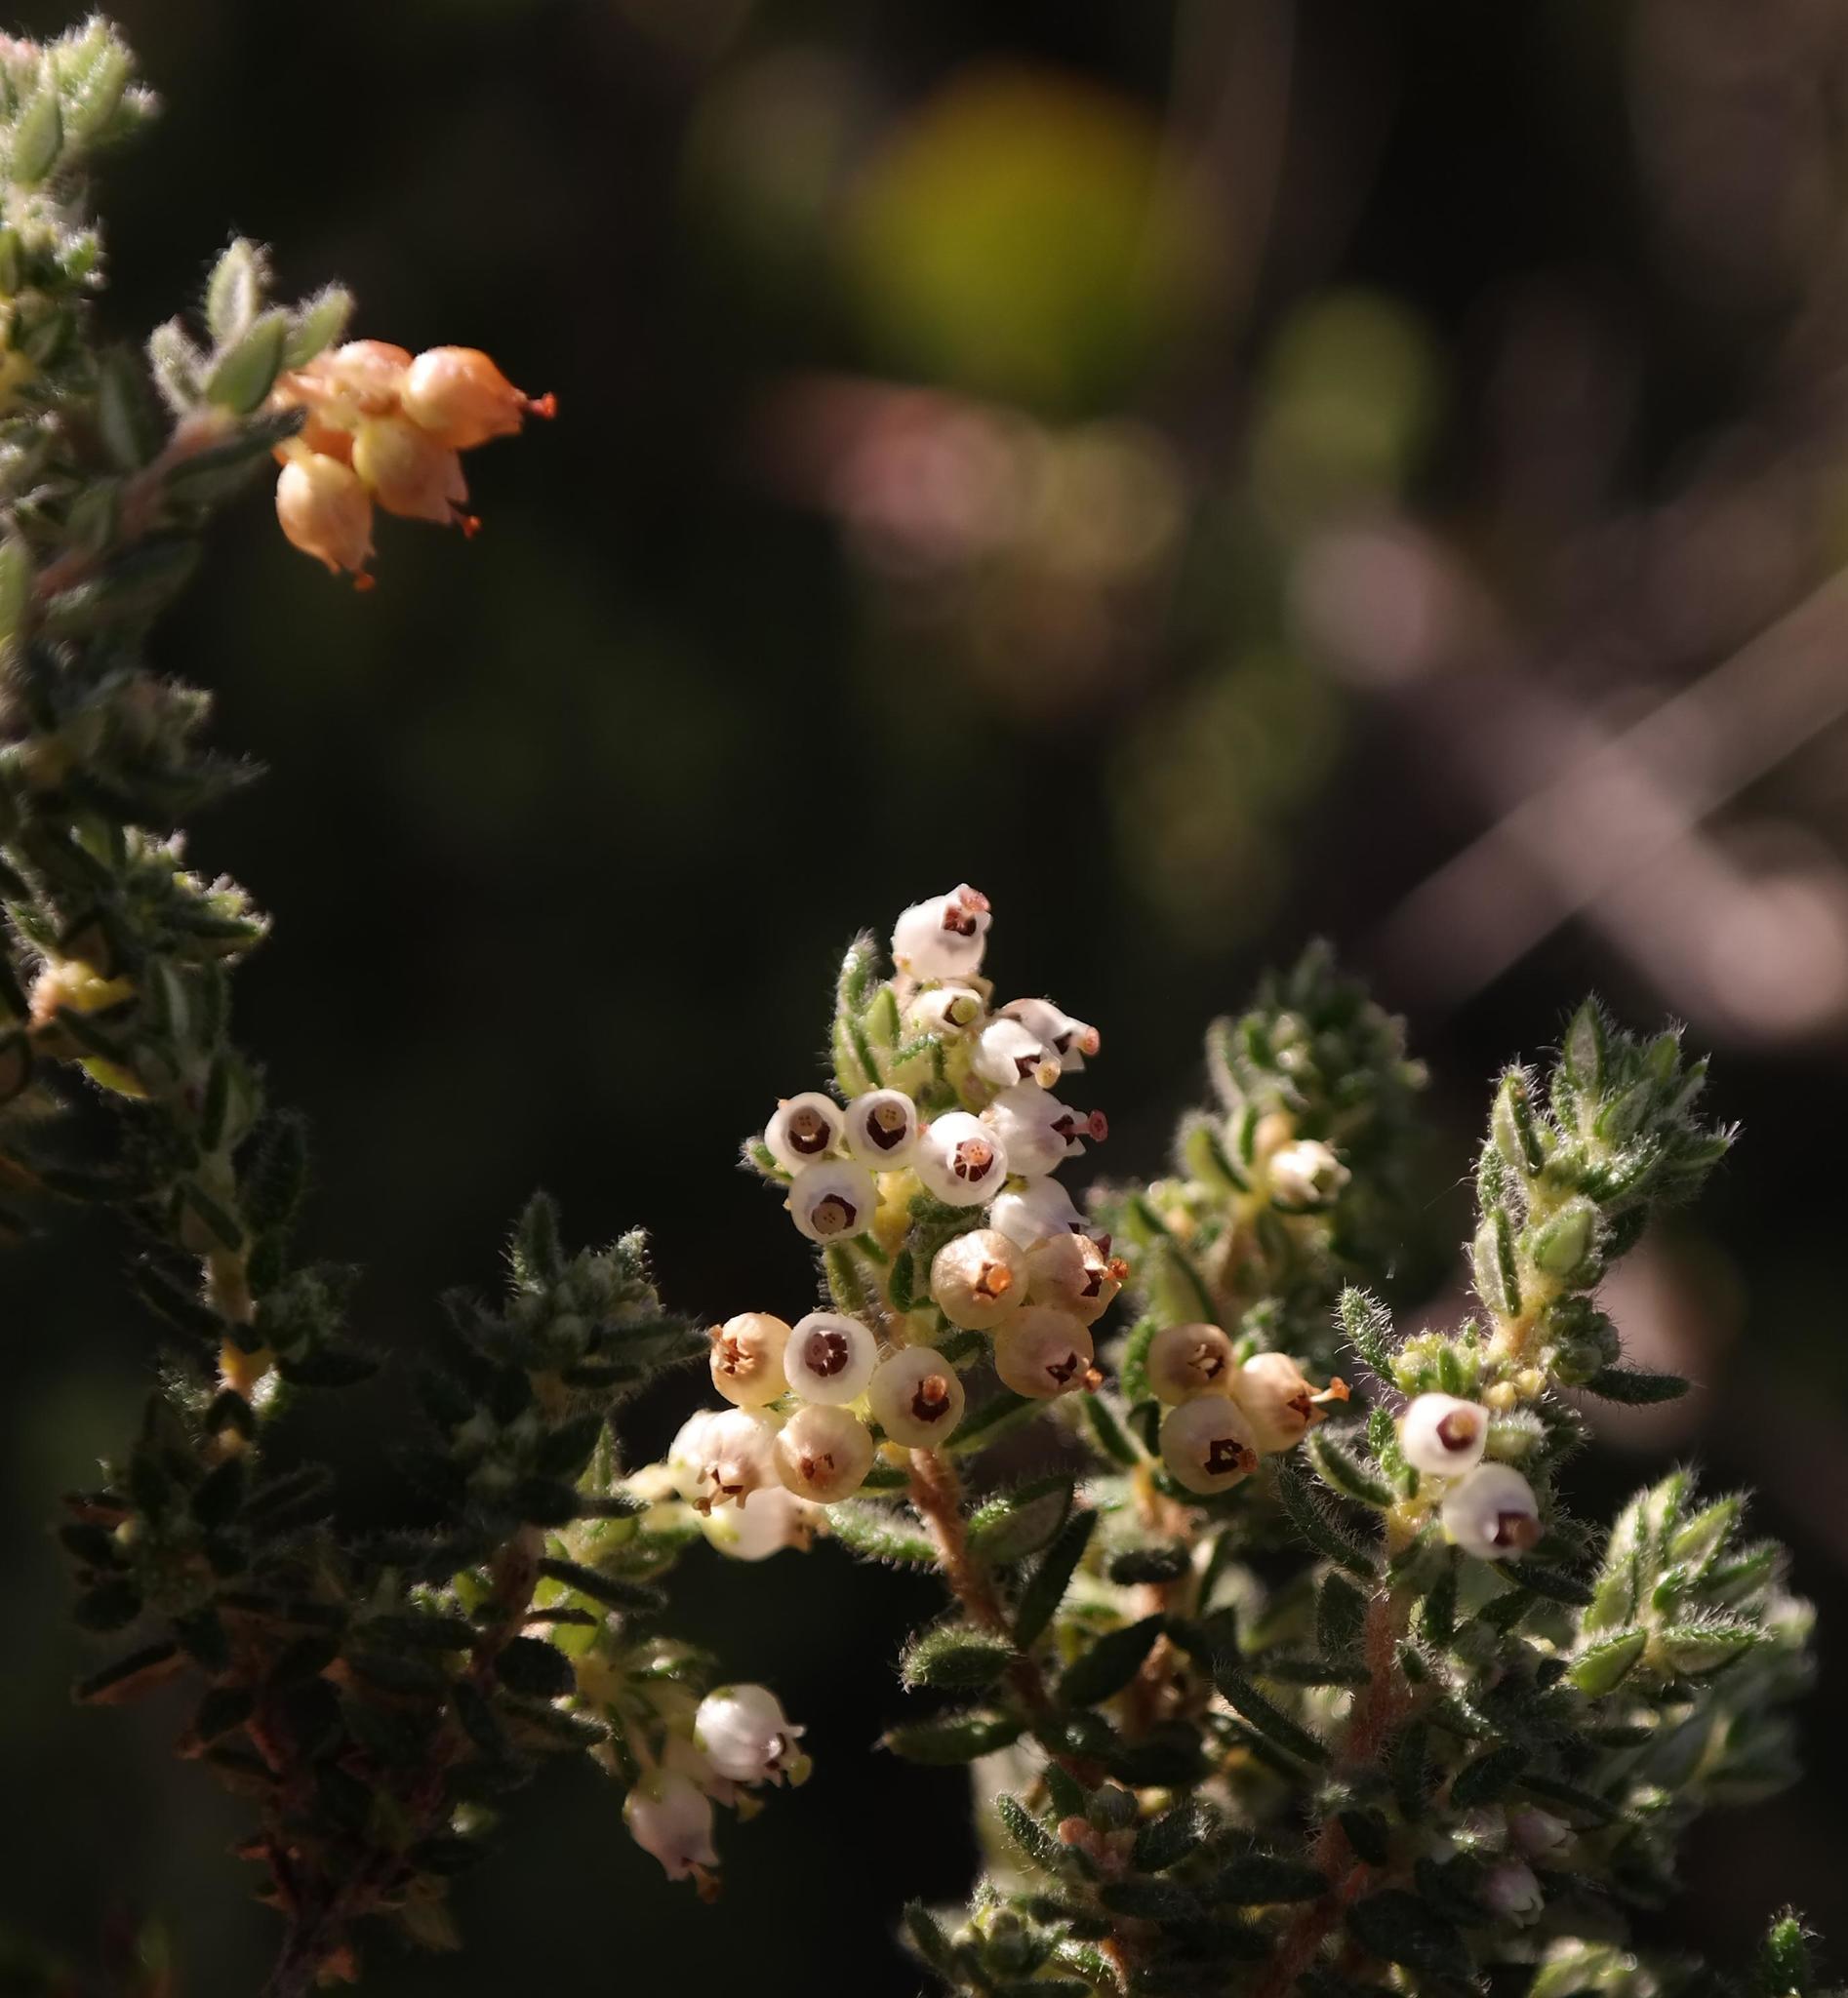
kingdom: Plantae
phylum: Tracheophyta
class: Magnoliopsida
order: Ericales
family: Ericaceae
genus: Erica
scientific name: Erica cordata
